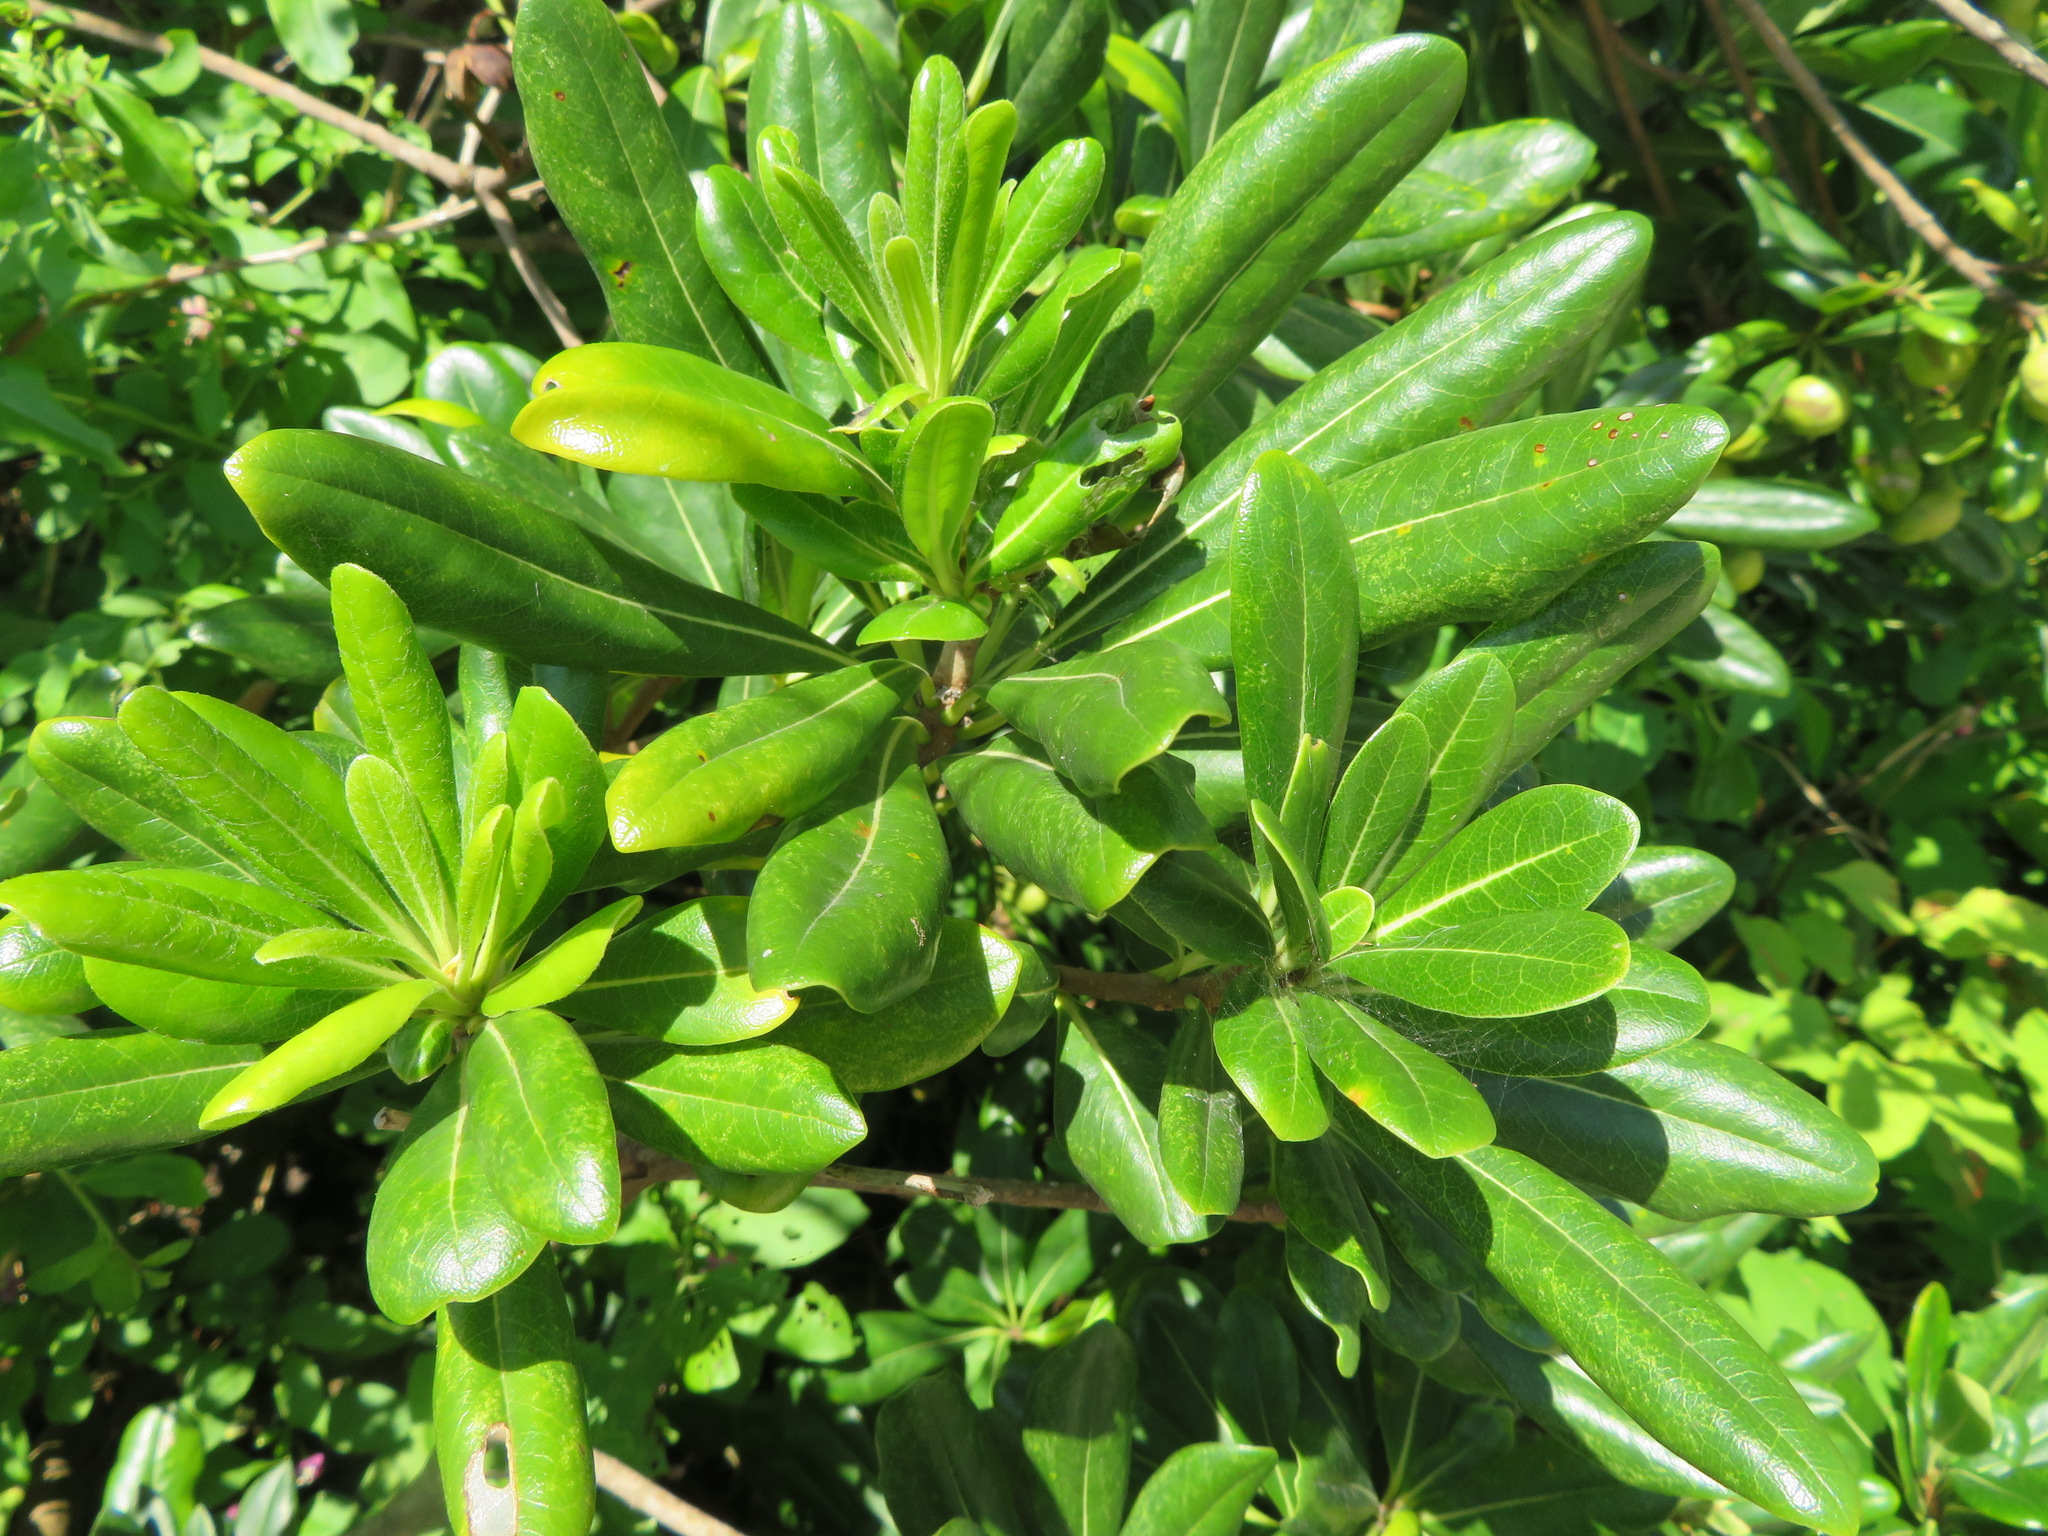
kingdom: Plantae
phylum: Tracheophyta
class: Magnoliopsida
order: Apiales
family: Pittosporaceae
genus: Pittosporum
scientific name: Pittosporum tobira
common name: Japanese cheesewood
